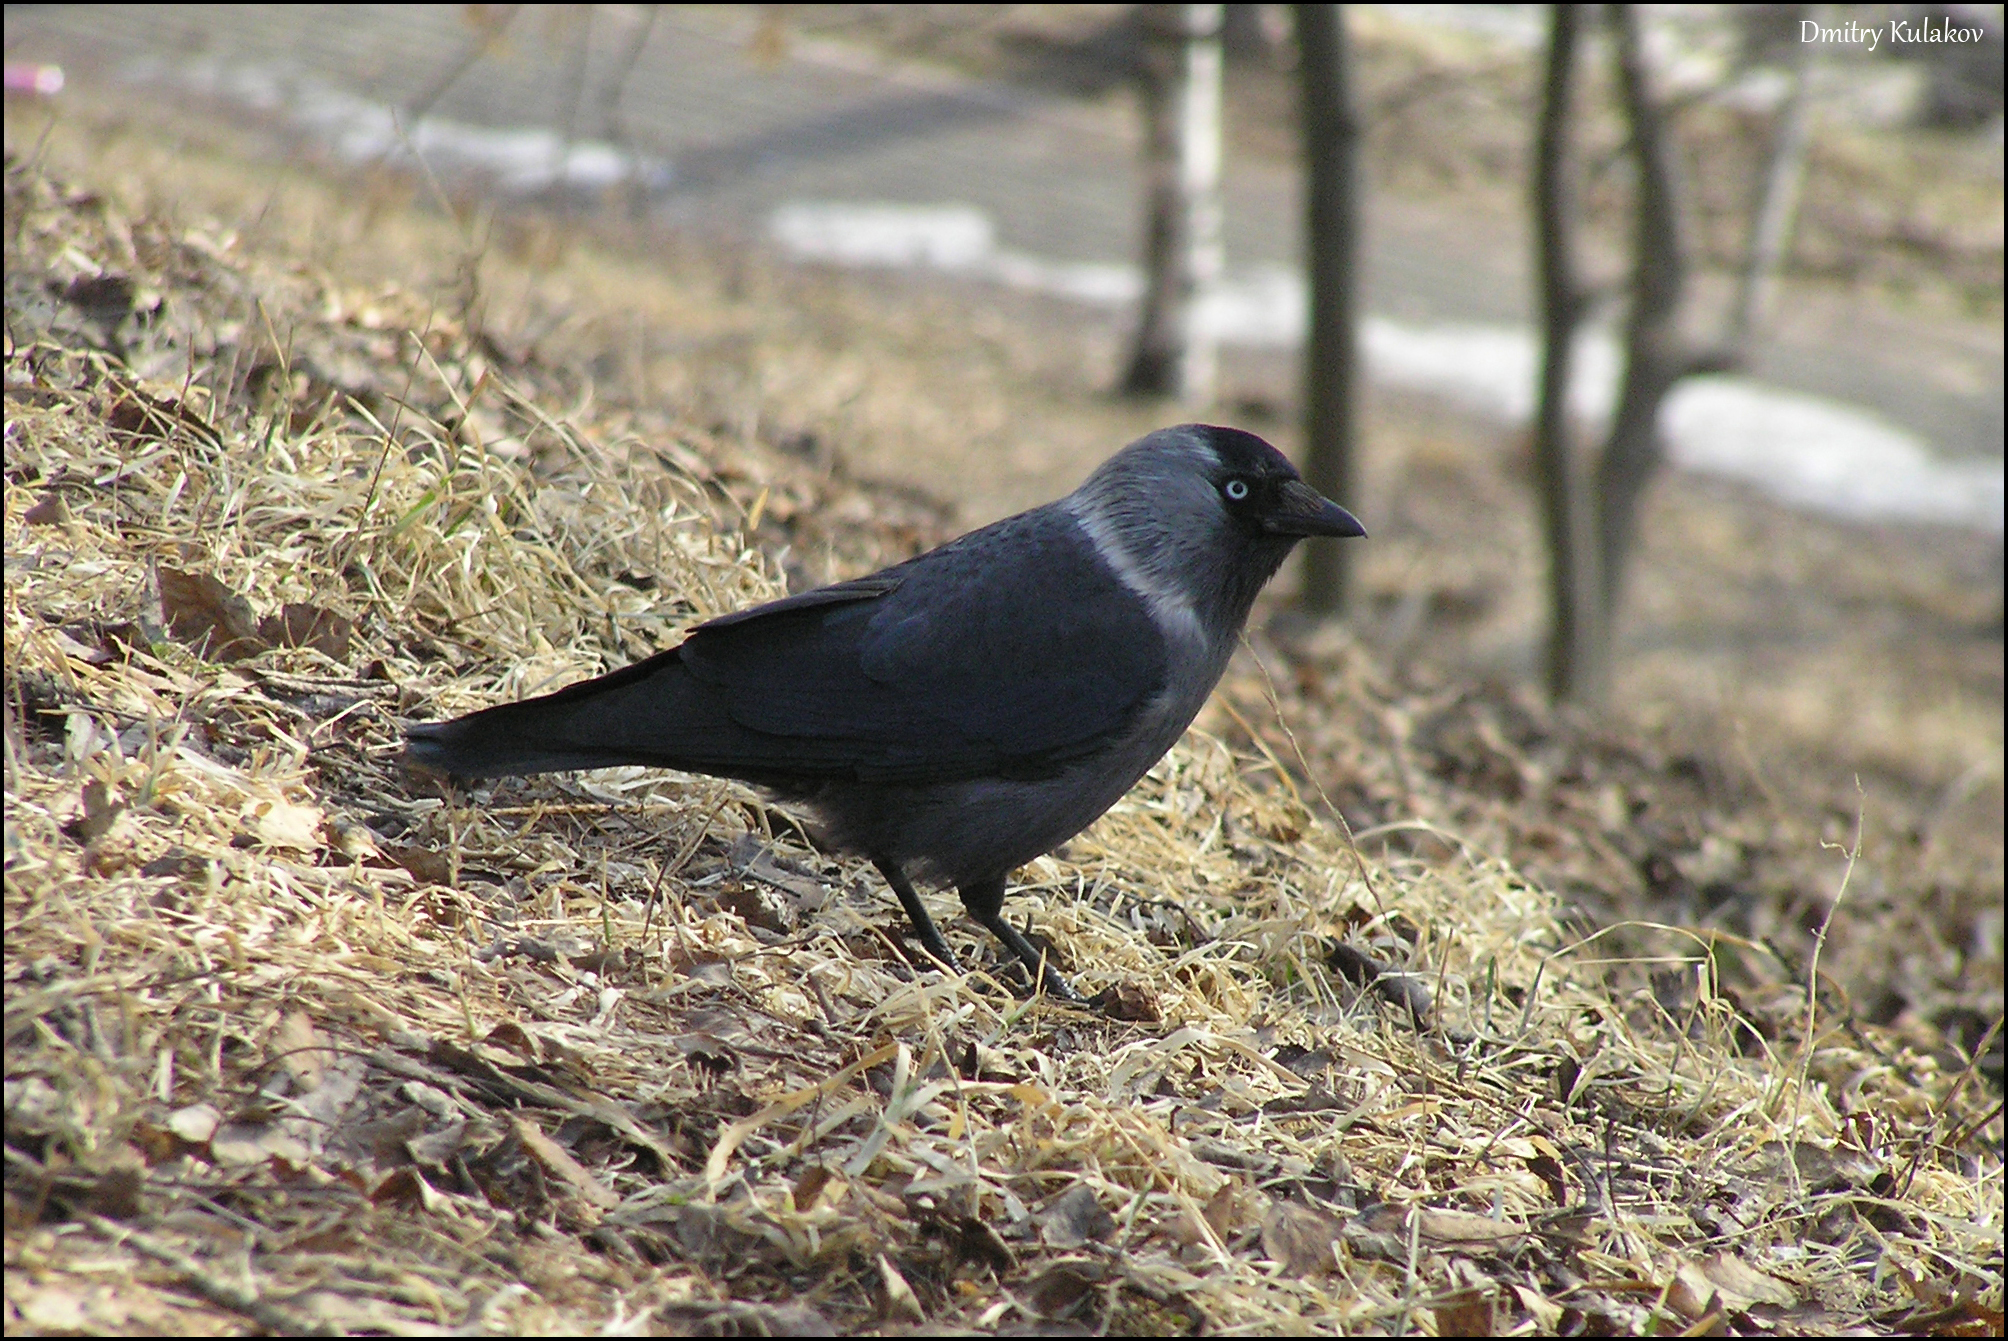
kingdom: Animalia
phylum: Chordata
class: Aves
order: Passeriformes
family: Corvidae
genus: Coloeus
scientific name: Coloeus monedula
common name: Western jackdaw
